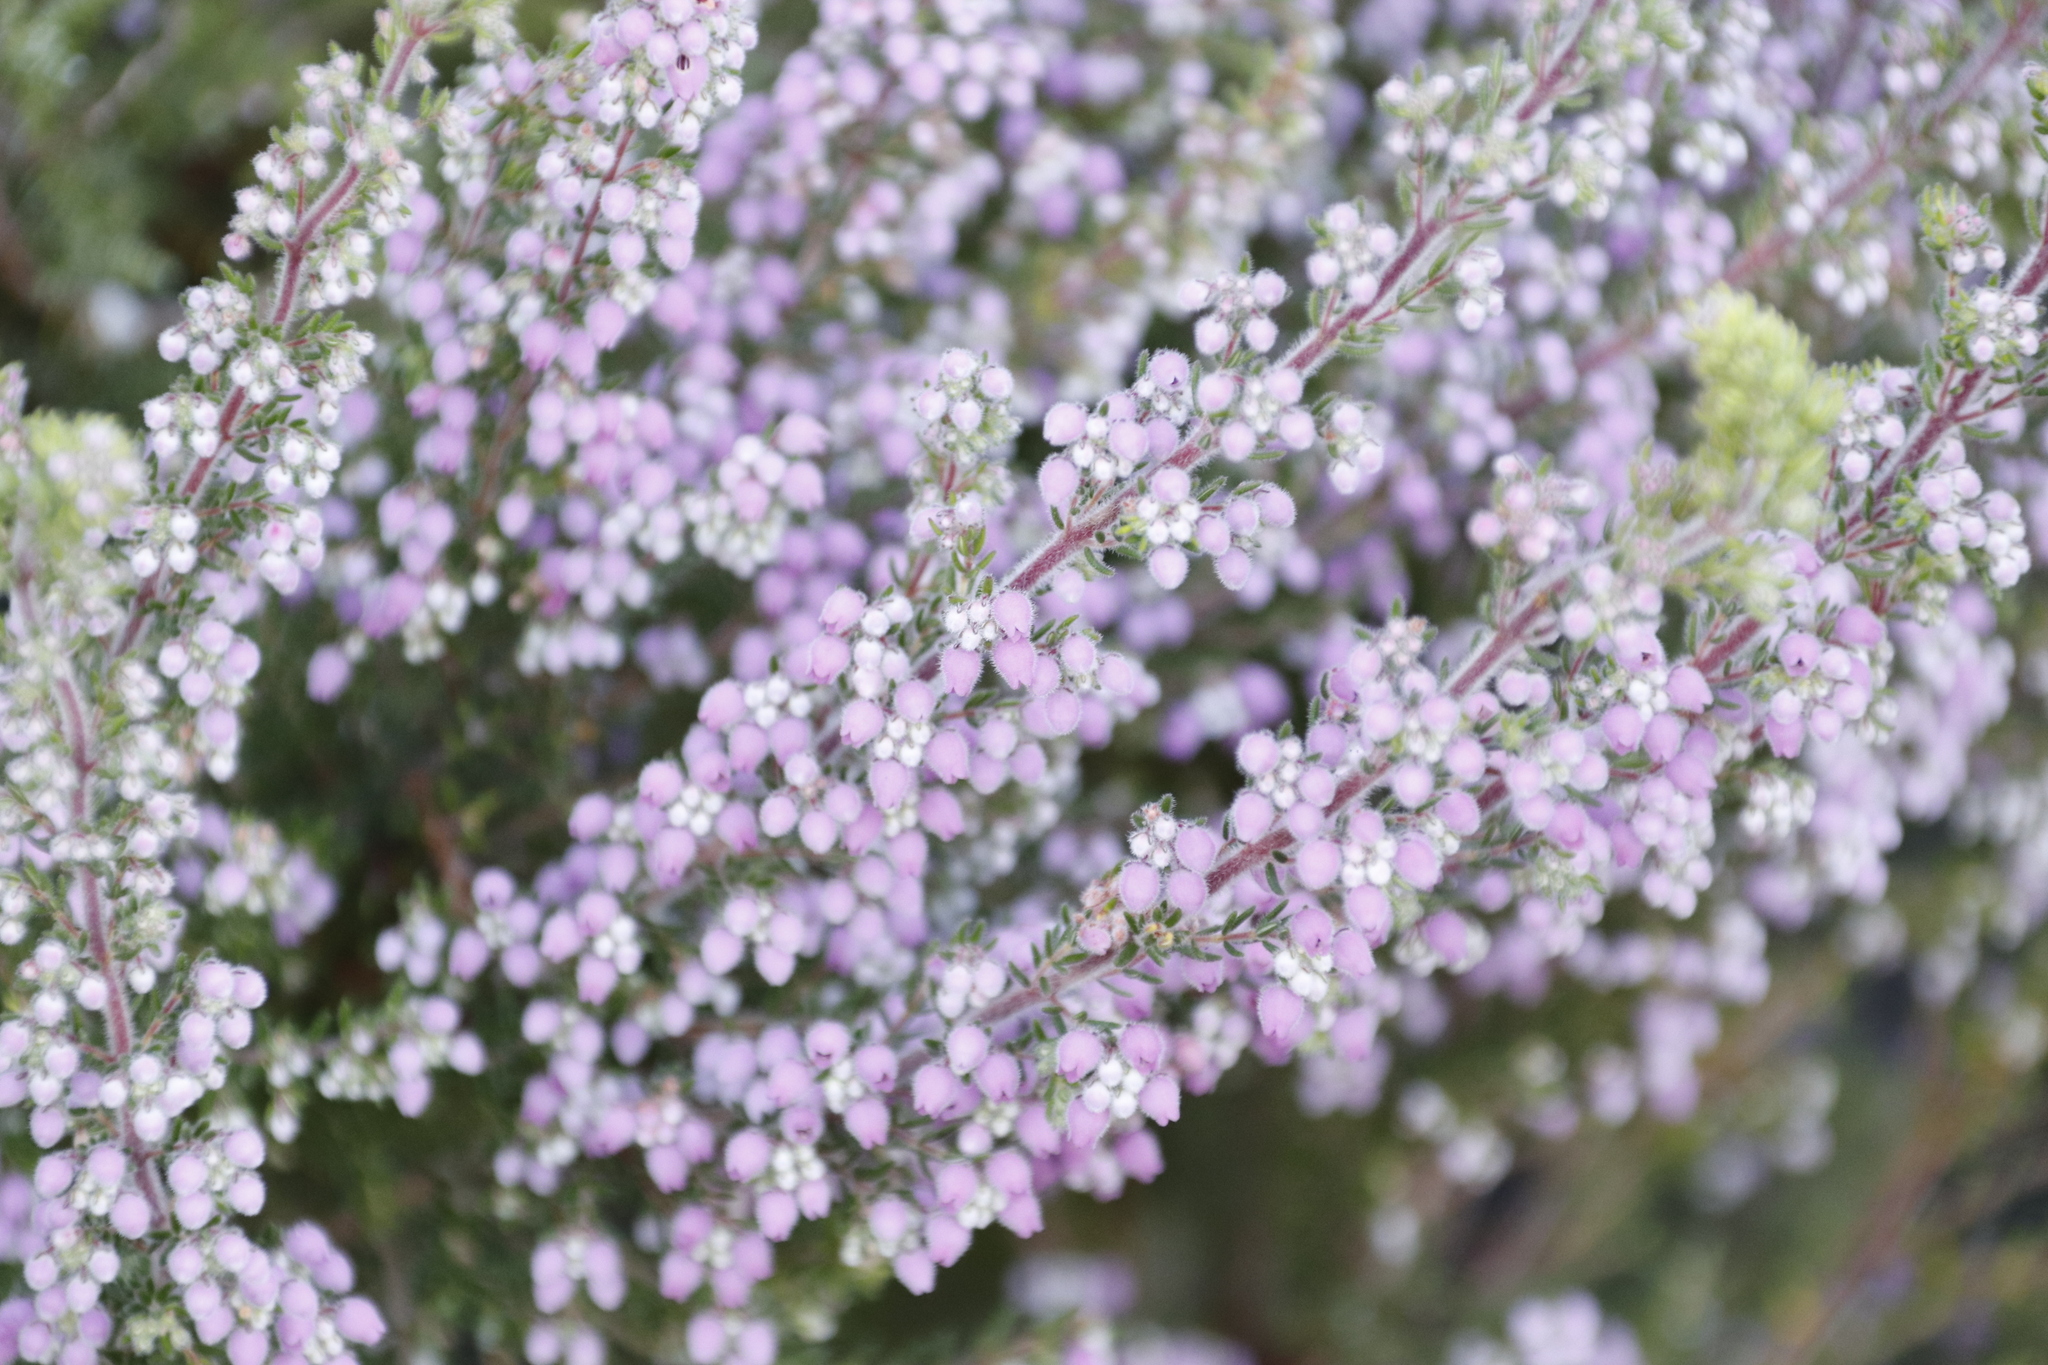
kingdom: Plantae
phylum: Tracheophyta
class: Magnoliopsida
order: Ericales
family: Ericaceae
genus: Erica
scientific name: Erica hirtiflora
